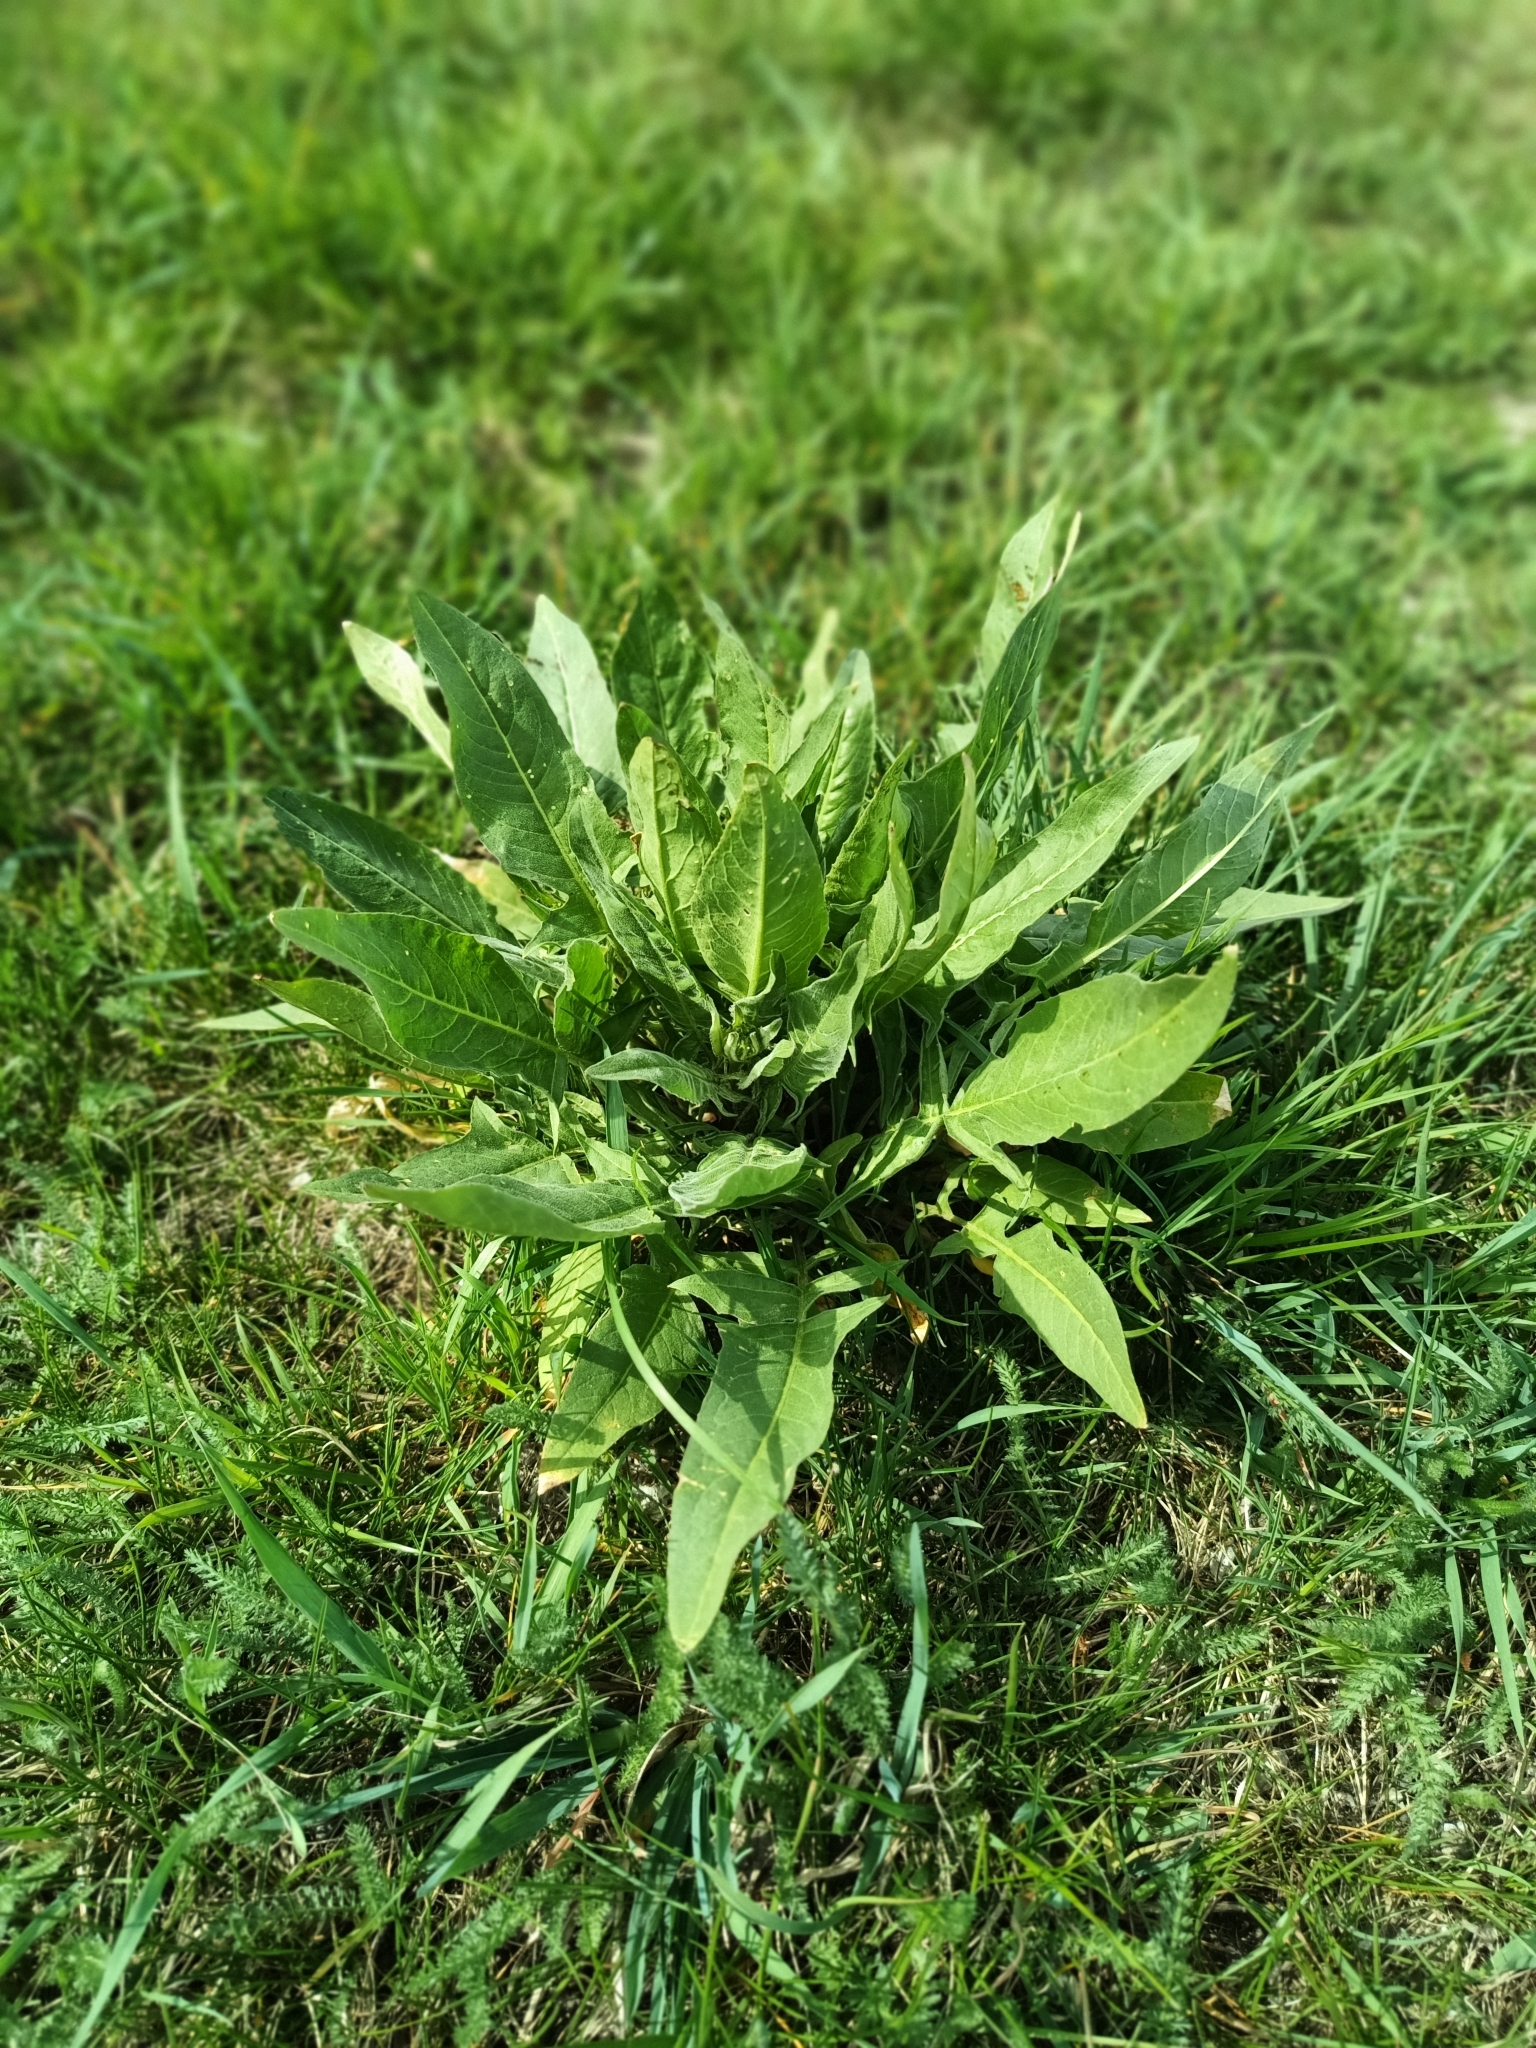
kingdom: Plantae
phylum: Tracheophyta
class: Magnoliopsida
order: Brassicales
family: Brassicaceae
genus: Bunias
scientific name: Bunias orientalis
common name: Warty-cabbage
